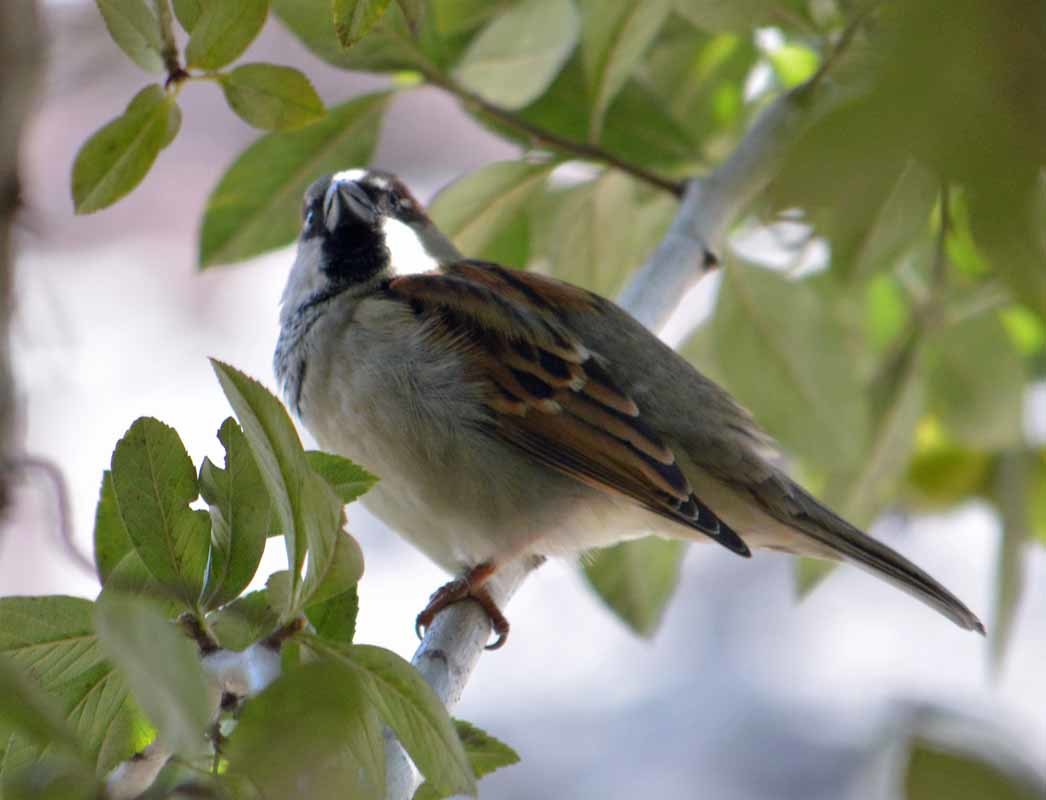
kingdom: Animalia
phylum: Chordata
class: Aves
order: Passeriformes
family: Passeridae
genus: Passer
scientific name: Passer domesticus
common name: House sparrow
